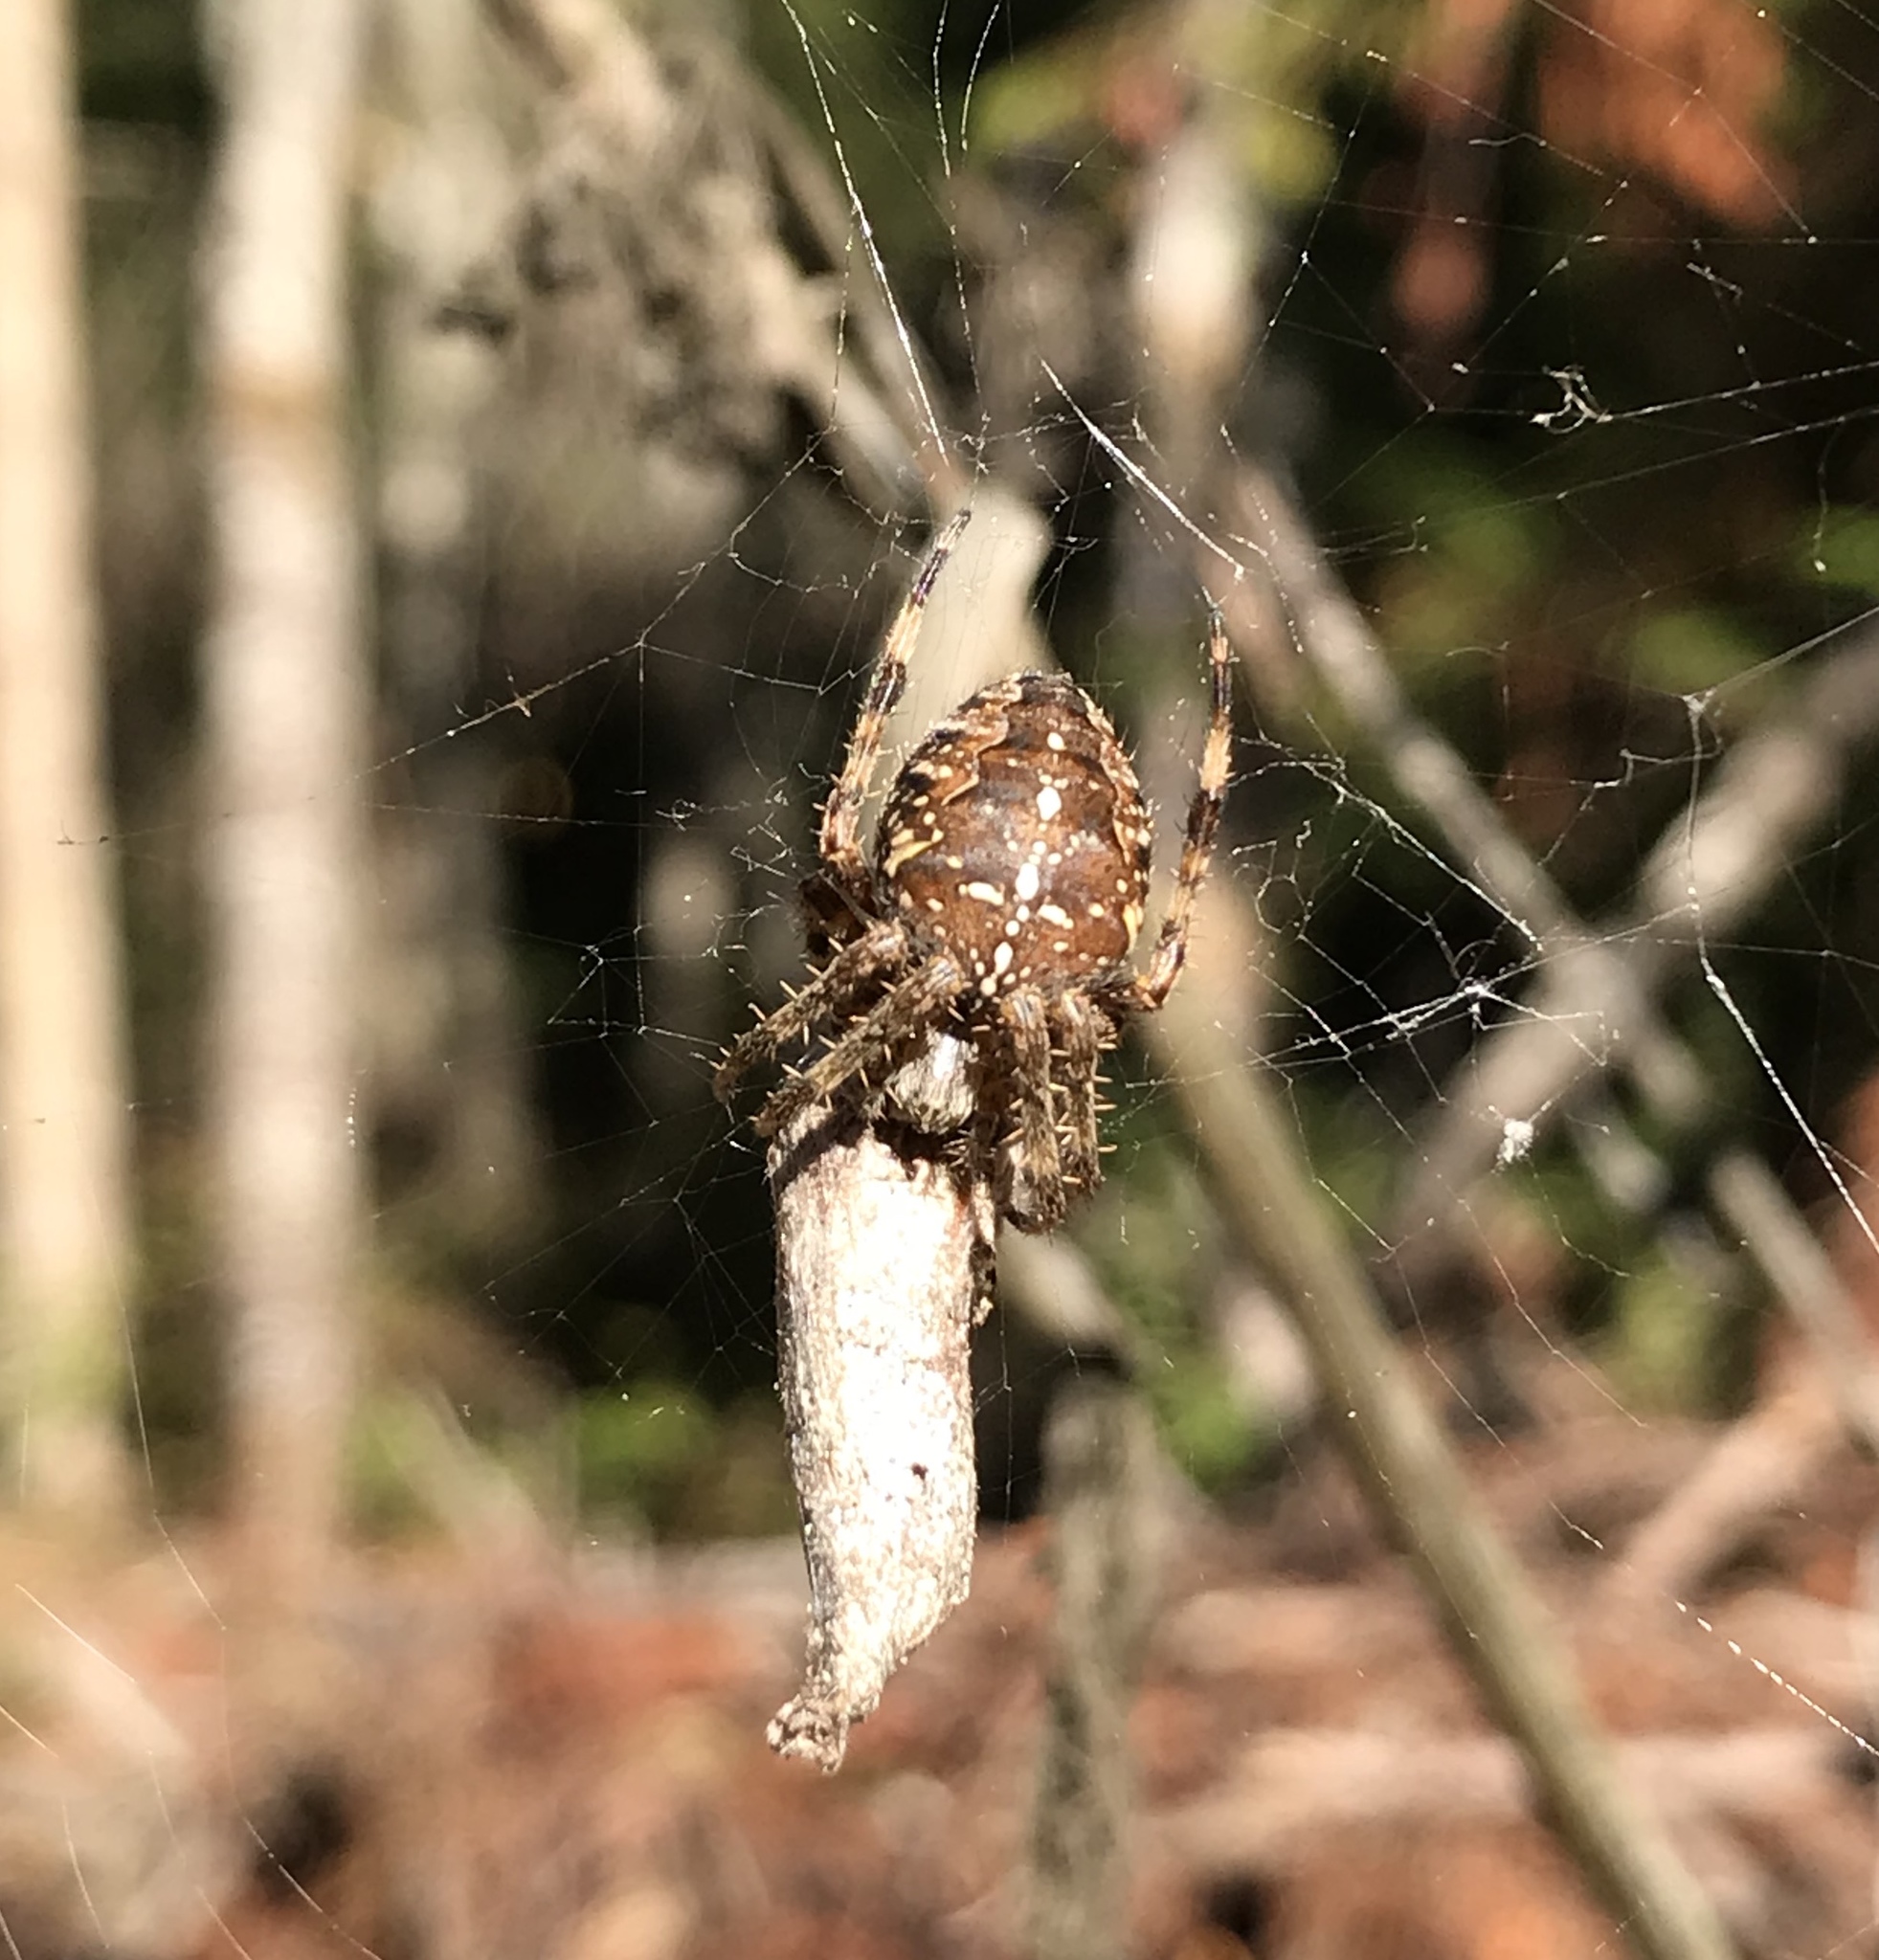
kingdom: Animalia
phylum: Arthropoda
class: Arachnida
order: Araneae
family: Araneidae
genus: Araneus
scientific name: Araneus diadematus
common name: Cross orbweaver
